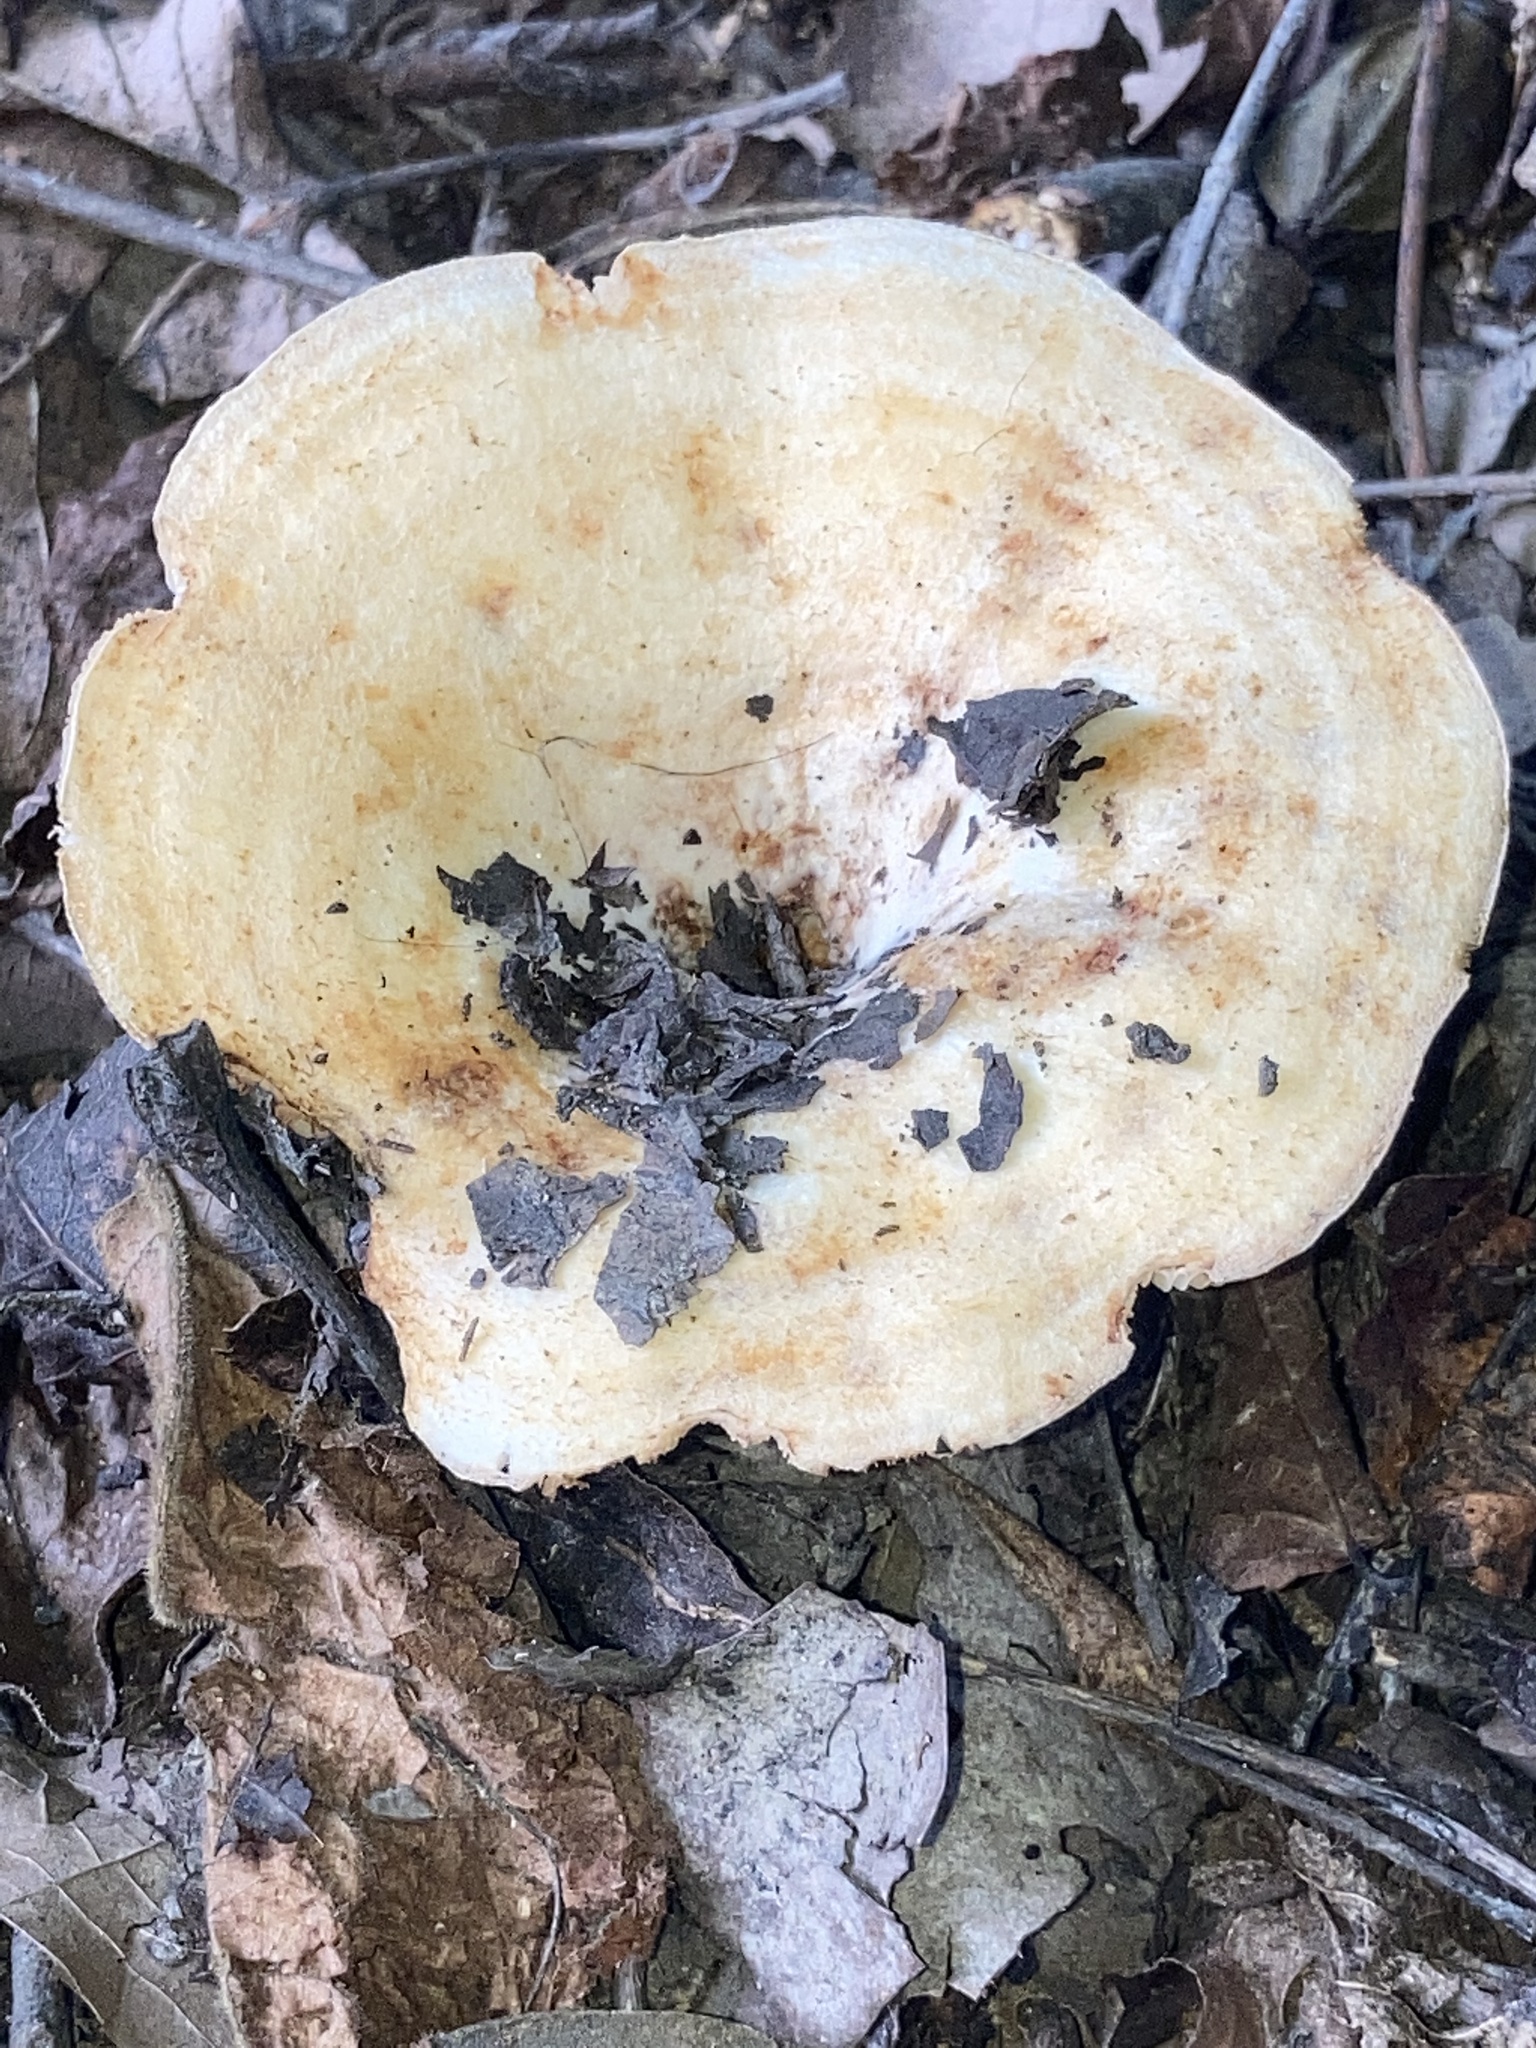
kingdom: Fungi
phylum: Basidiomycota
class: Agaricomycetes
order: Russulales
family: Russulaceae
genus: Lactarius
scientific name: Lactarius psammicola
